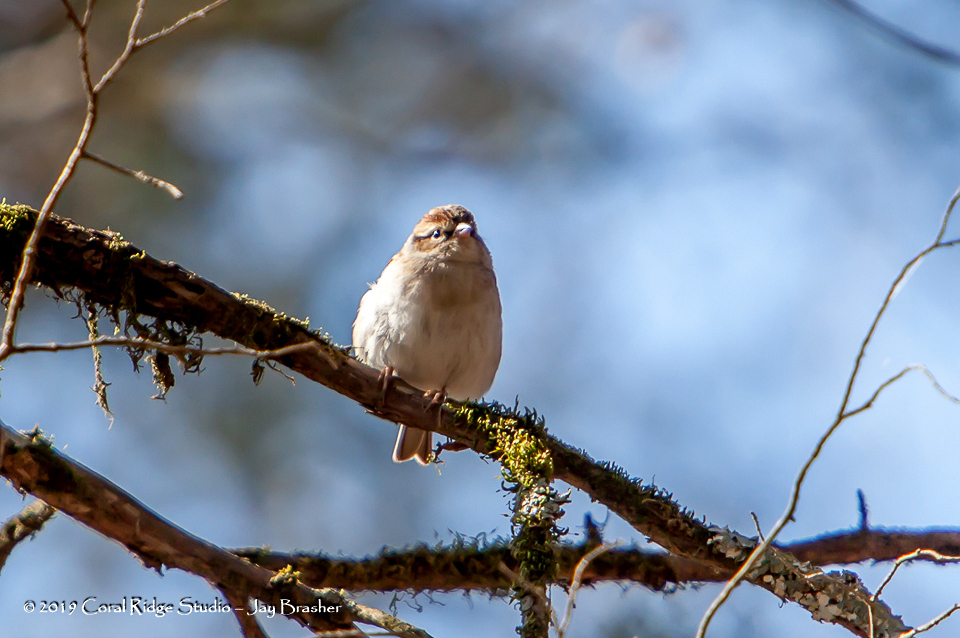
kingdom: Animalia
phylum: Chordata
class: Aves
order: Passeriformes
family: Passerellidae
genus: Spizella
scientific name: Spizella passerina
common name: Chipping sparrow
